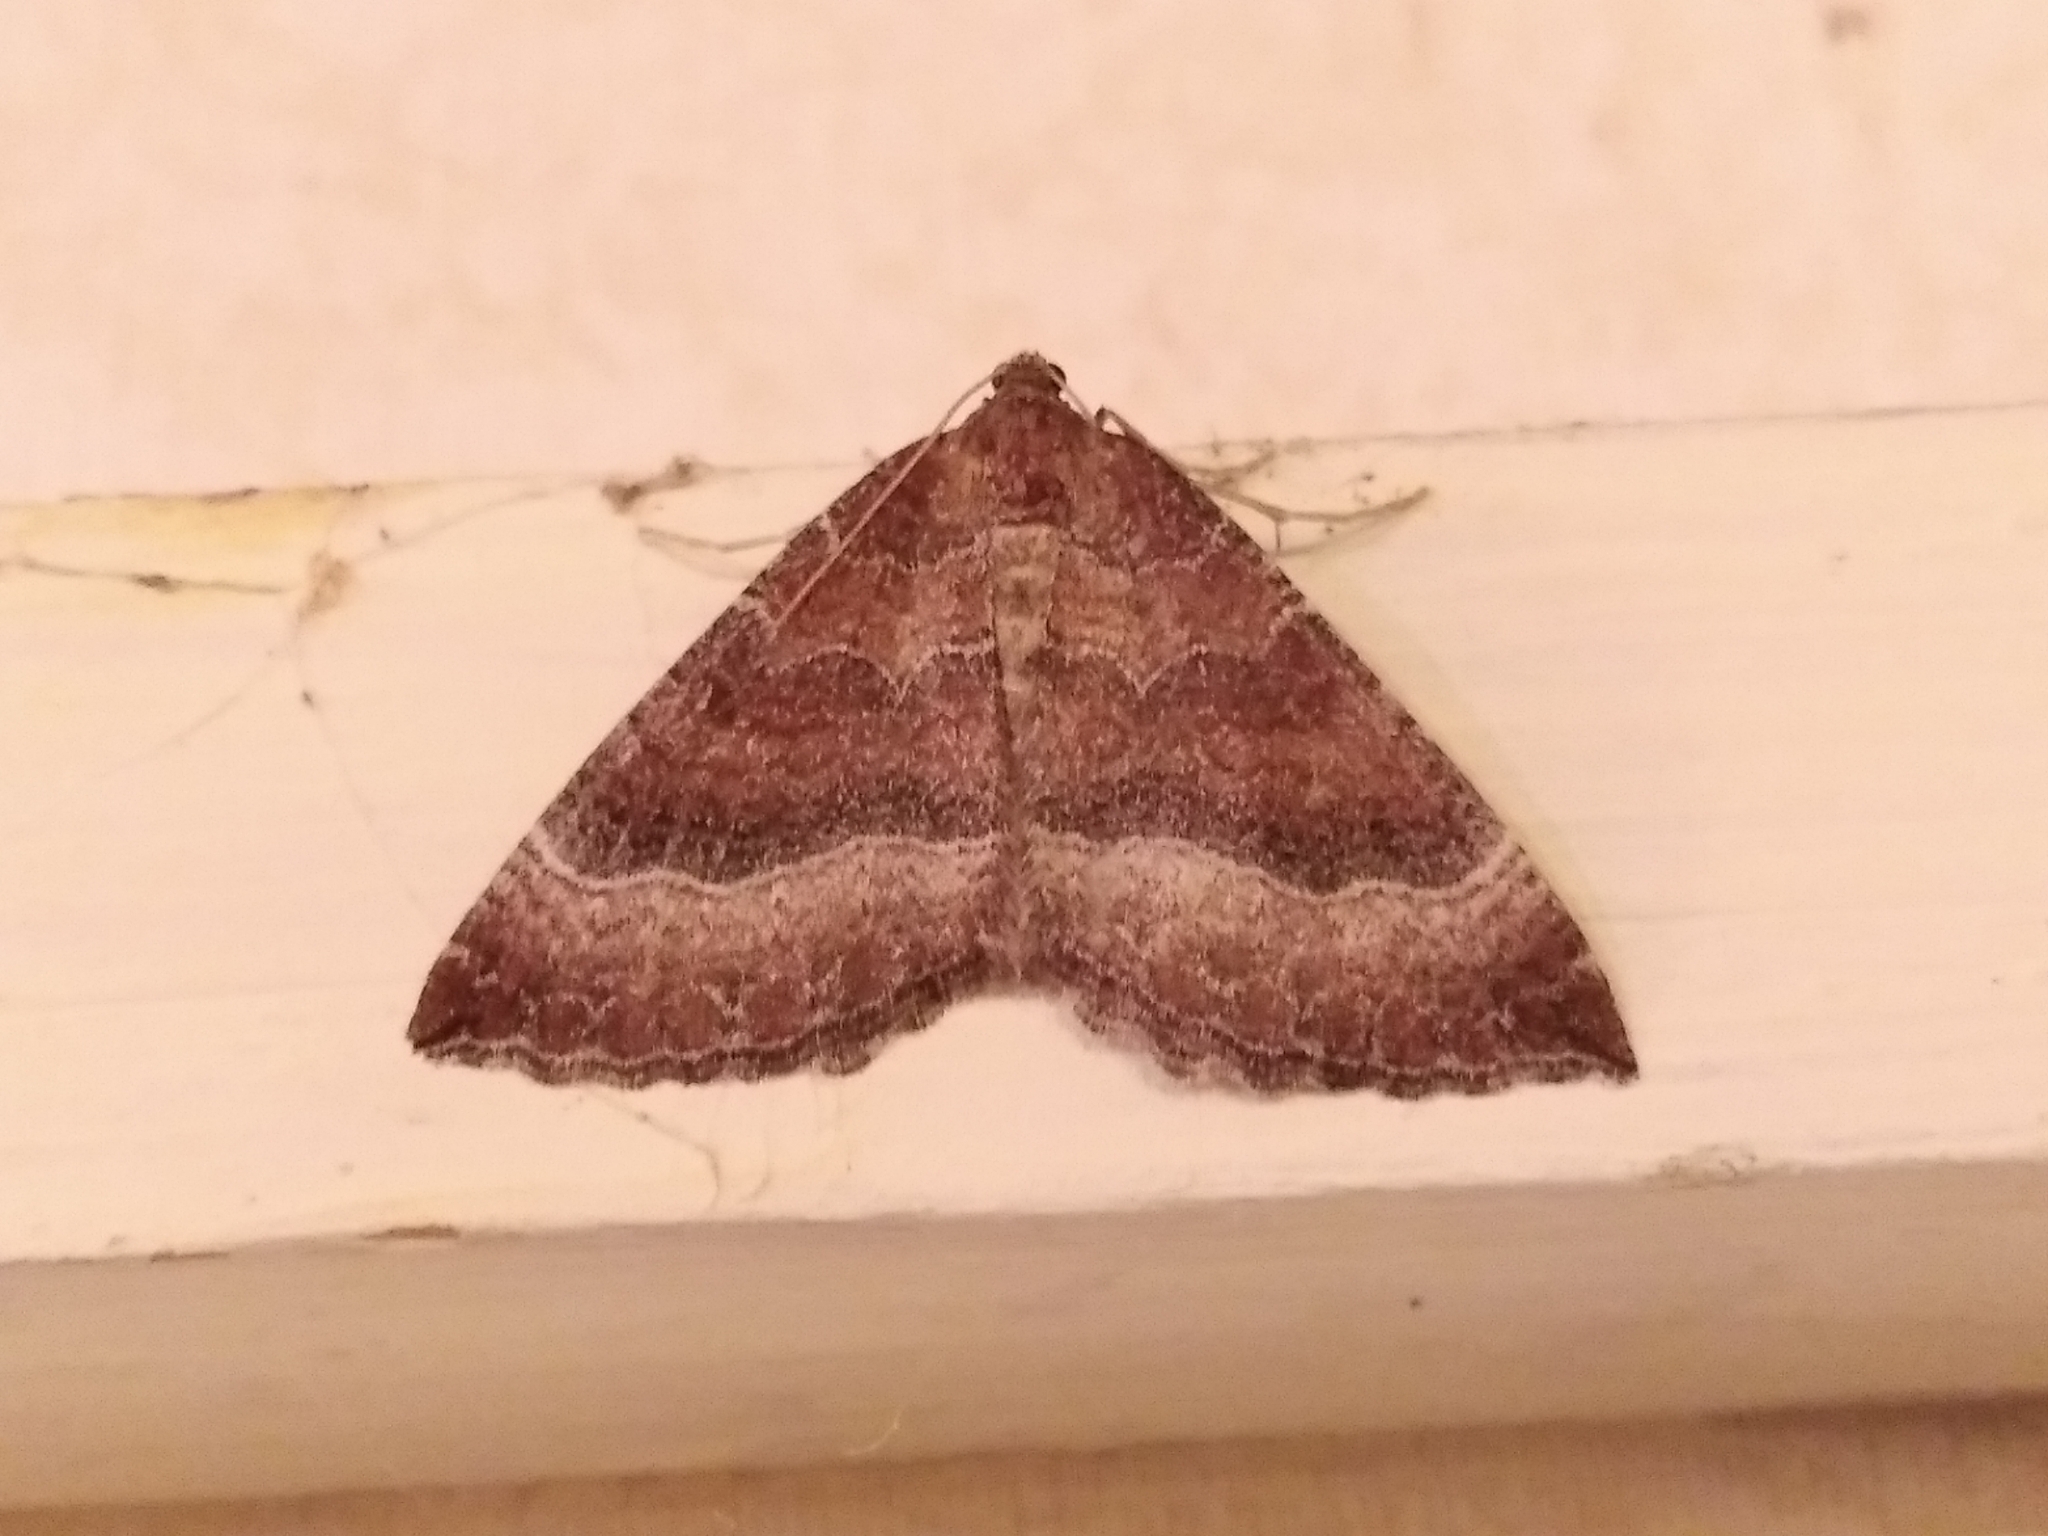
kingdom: Animalia
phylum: Arthropoda
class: Insecta
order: Lepidoptera
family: Geometridae
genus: Larentia
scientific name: Larentia clavaria
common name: Mallow
